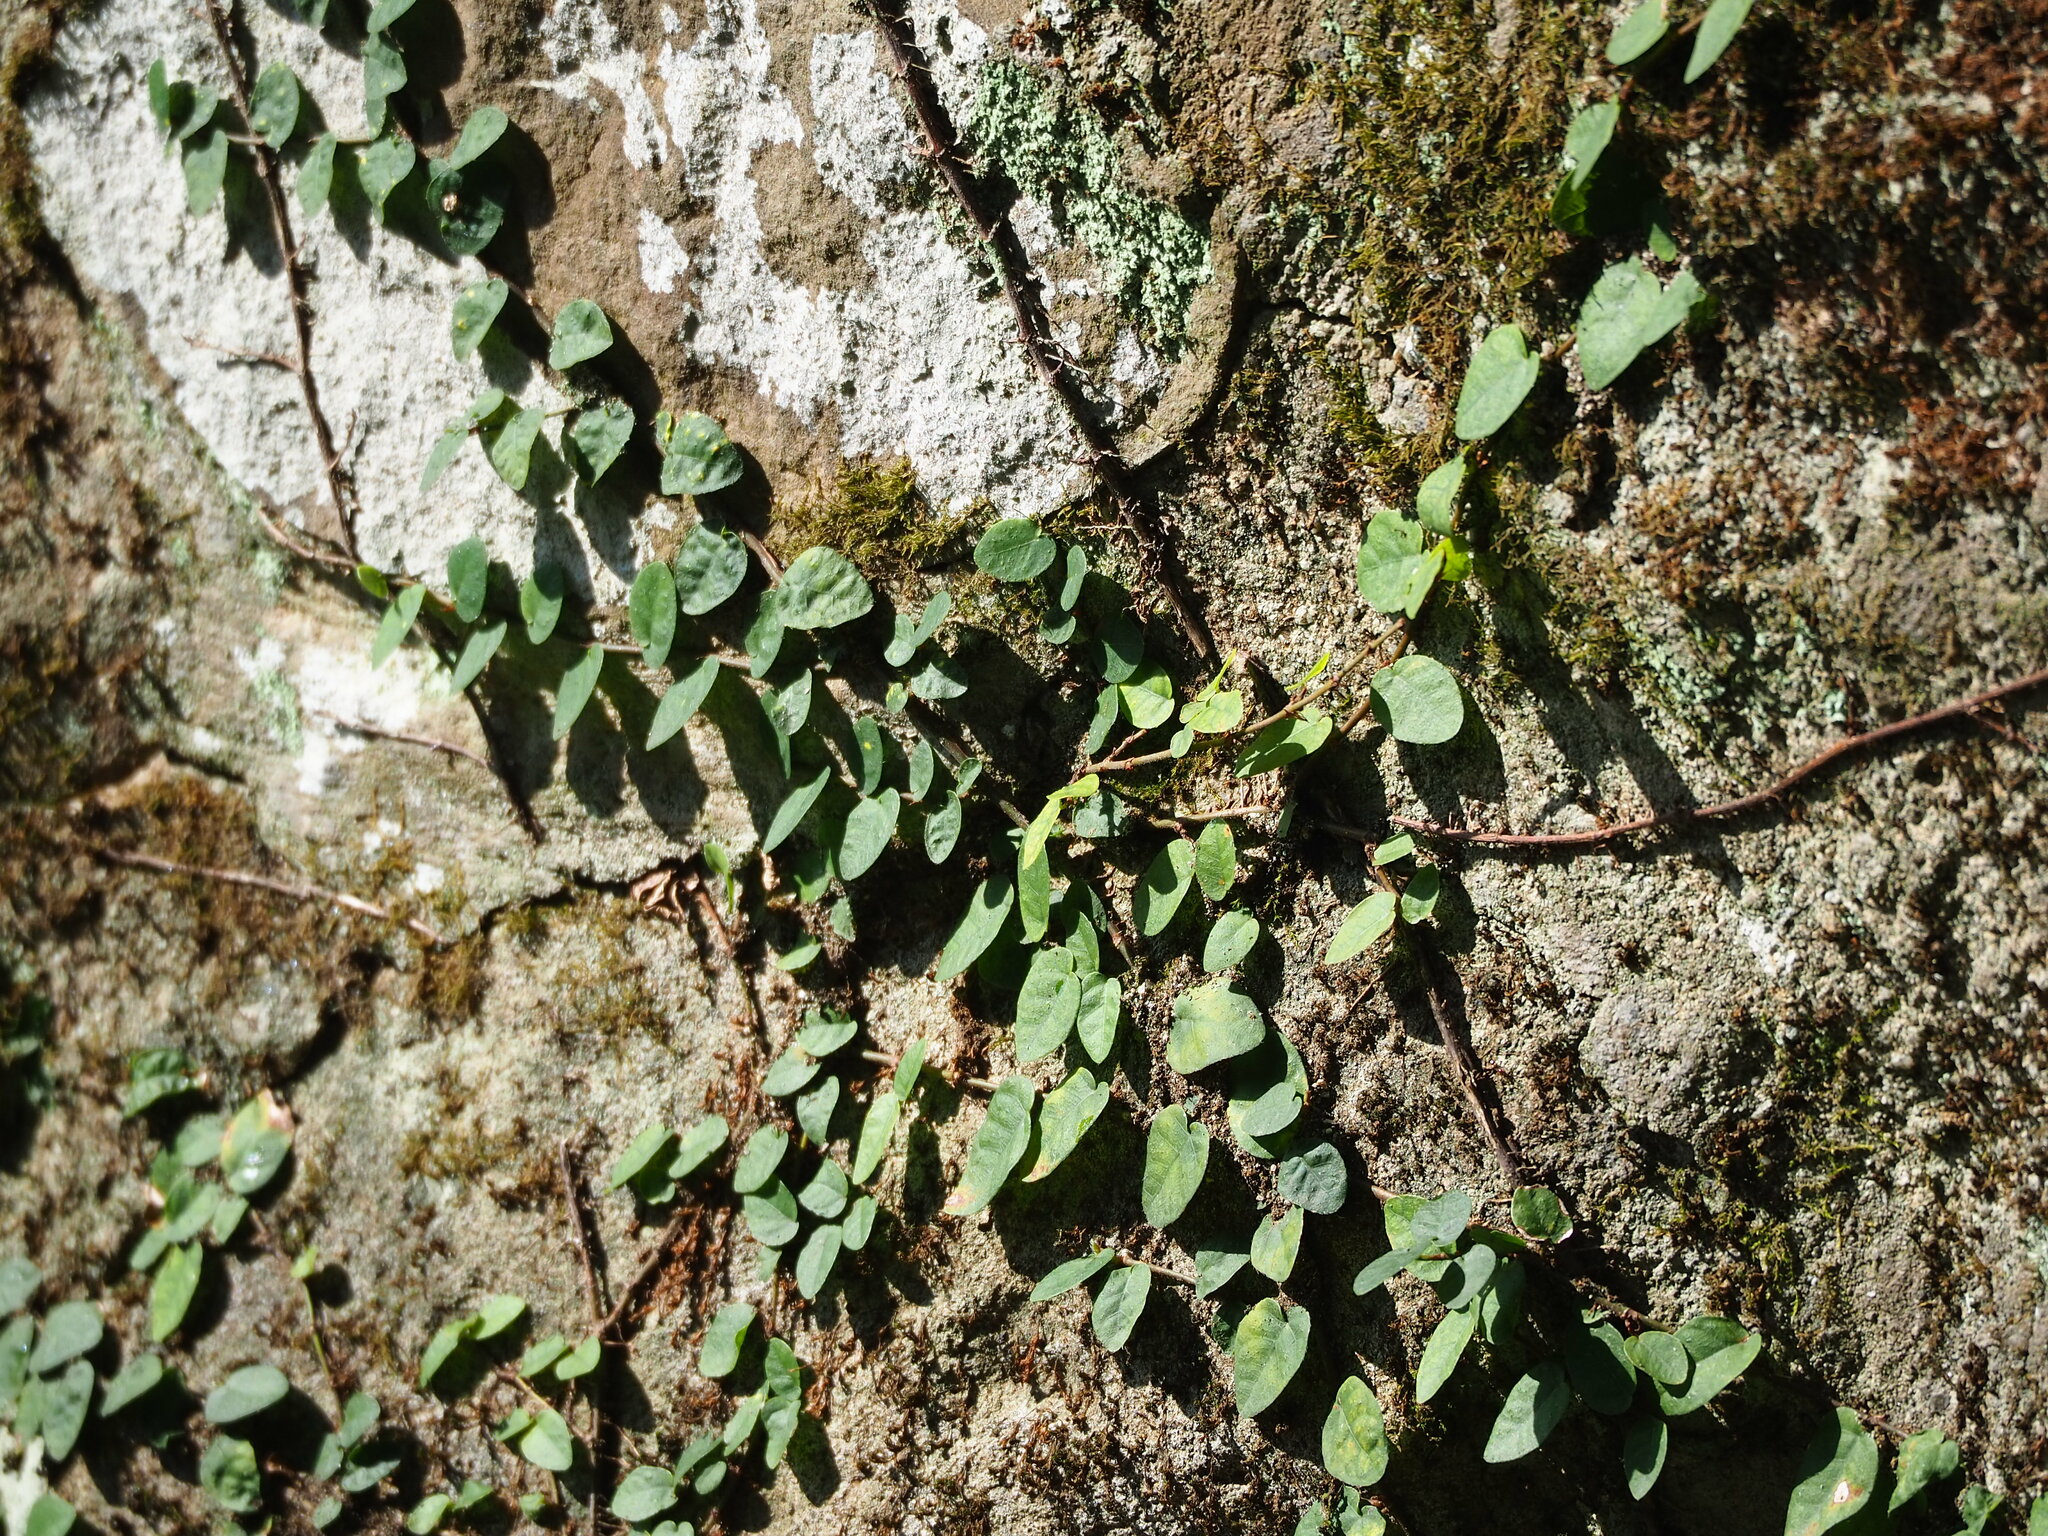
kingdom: Plantae
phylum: Tracheophyta
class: Magnoliopsida
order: Rosales
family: Moraceae
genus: Ficus
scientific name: Ficus pumila
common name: Climbingfig
